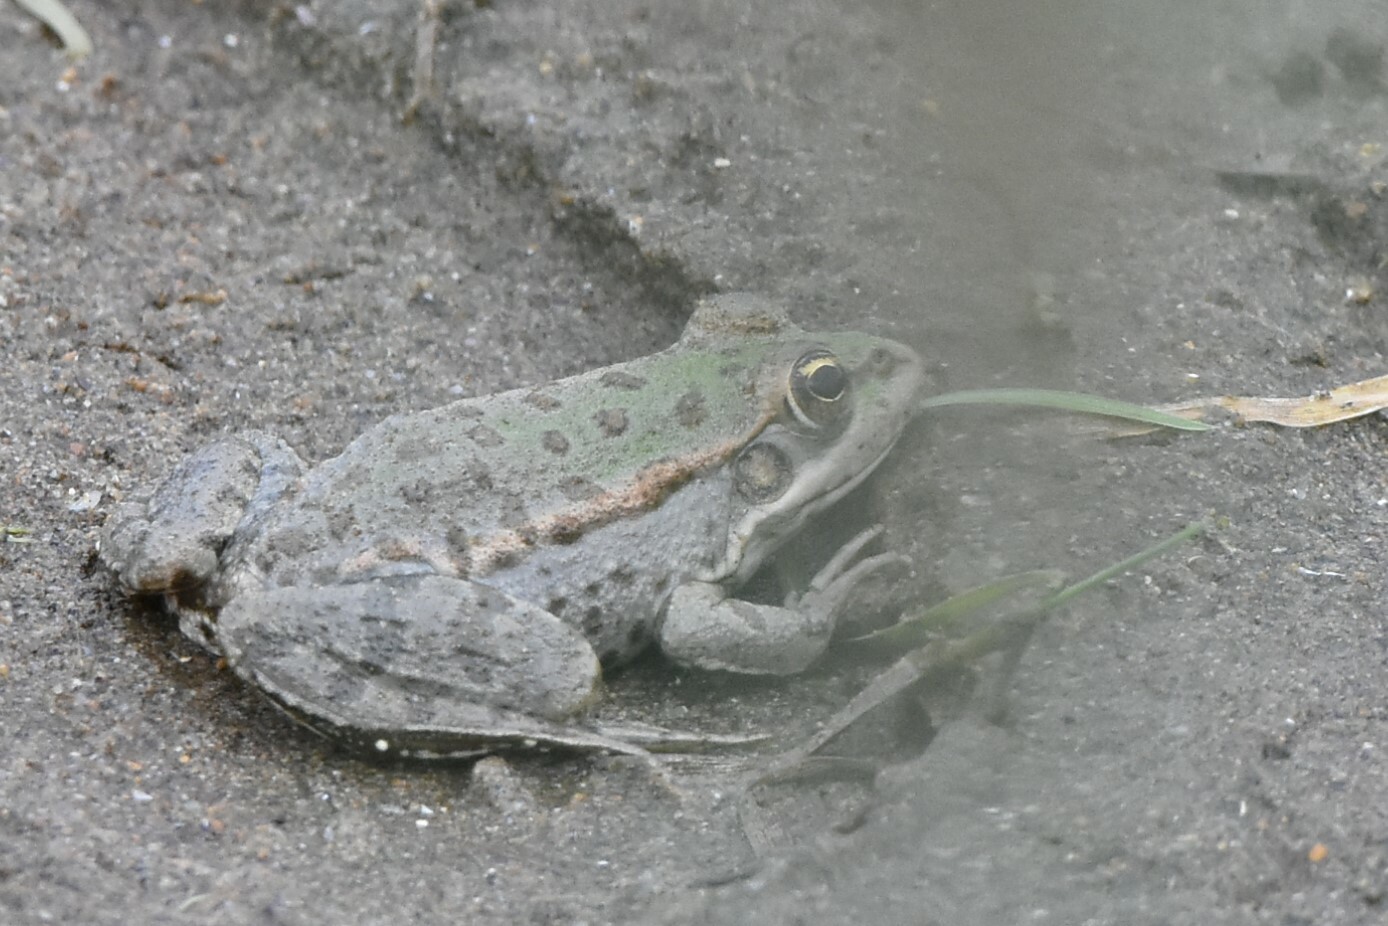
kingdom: Animalia
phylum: Chordata
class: Amphibia
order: Anura
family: Ranidae
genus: Pelophylax
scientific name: Pelophylax ridibundus
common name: Marsh frog
